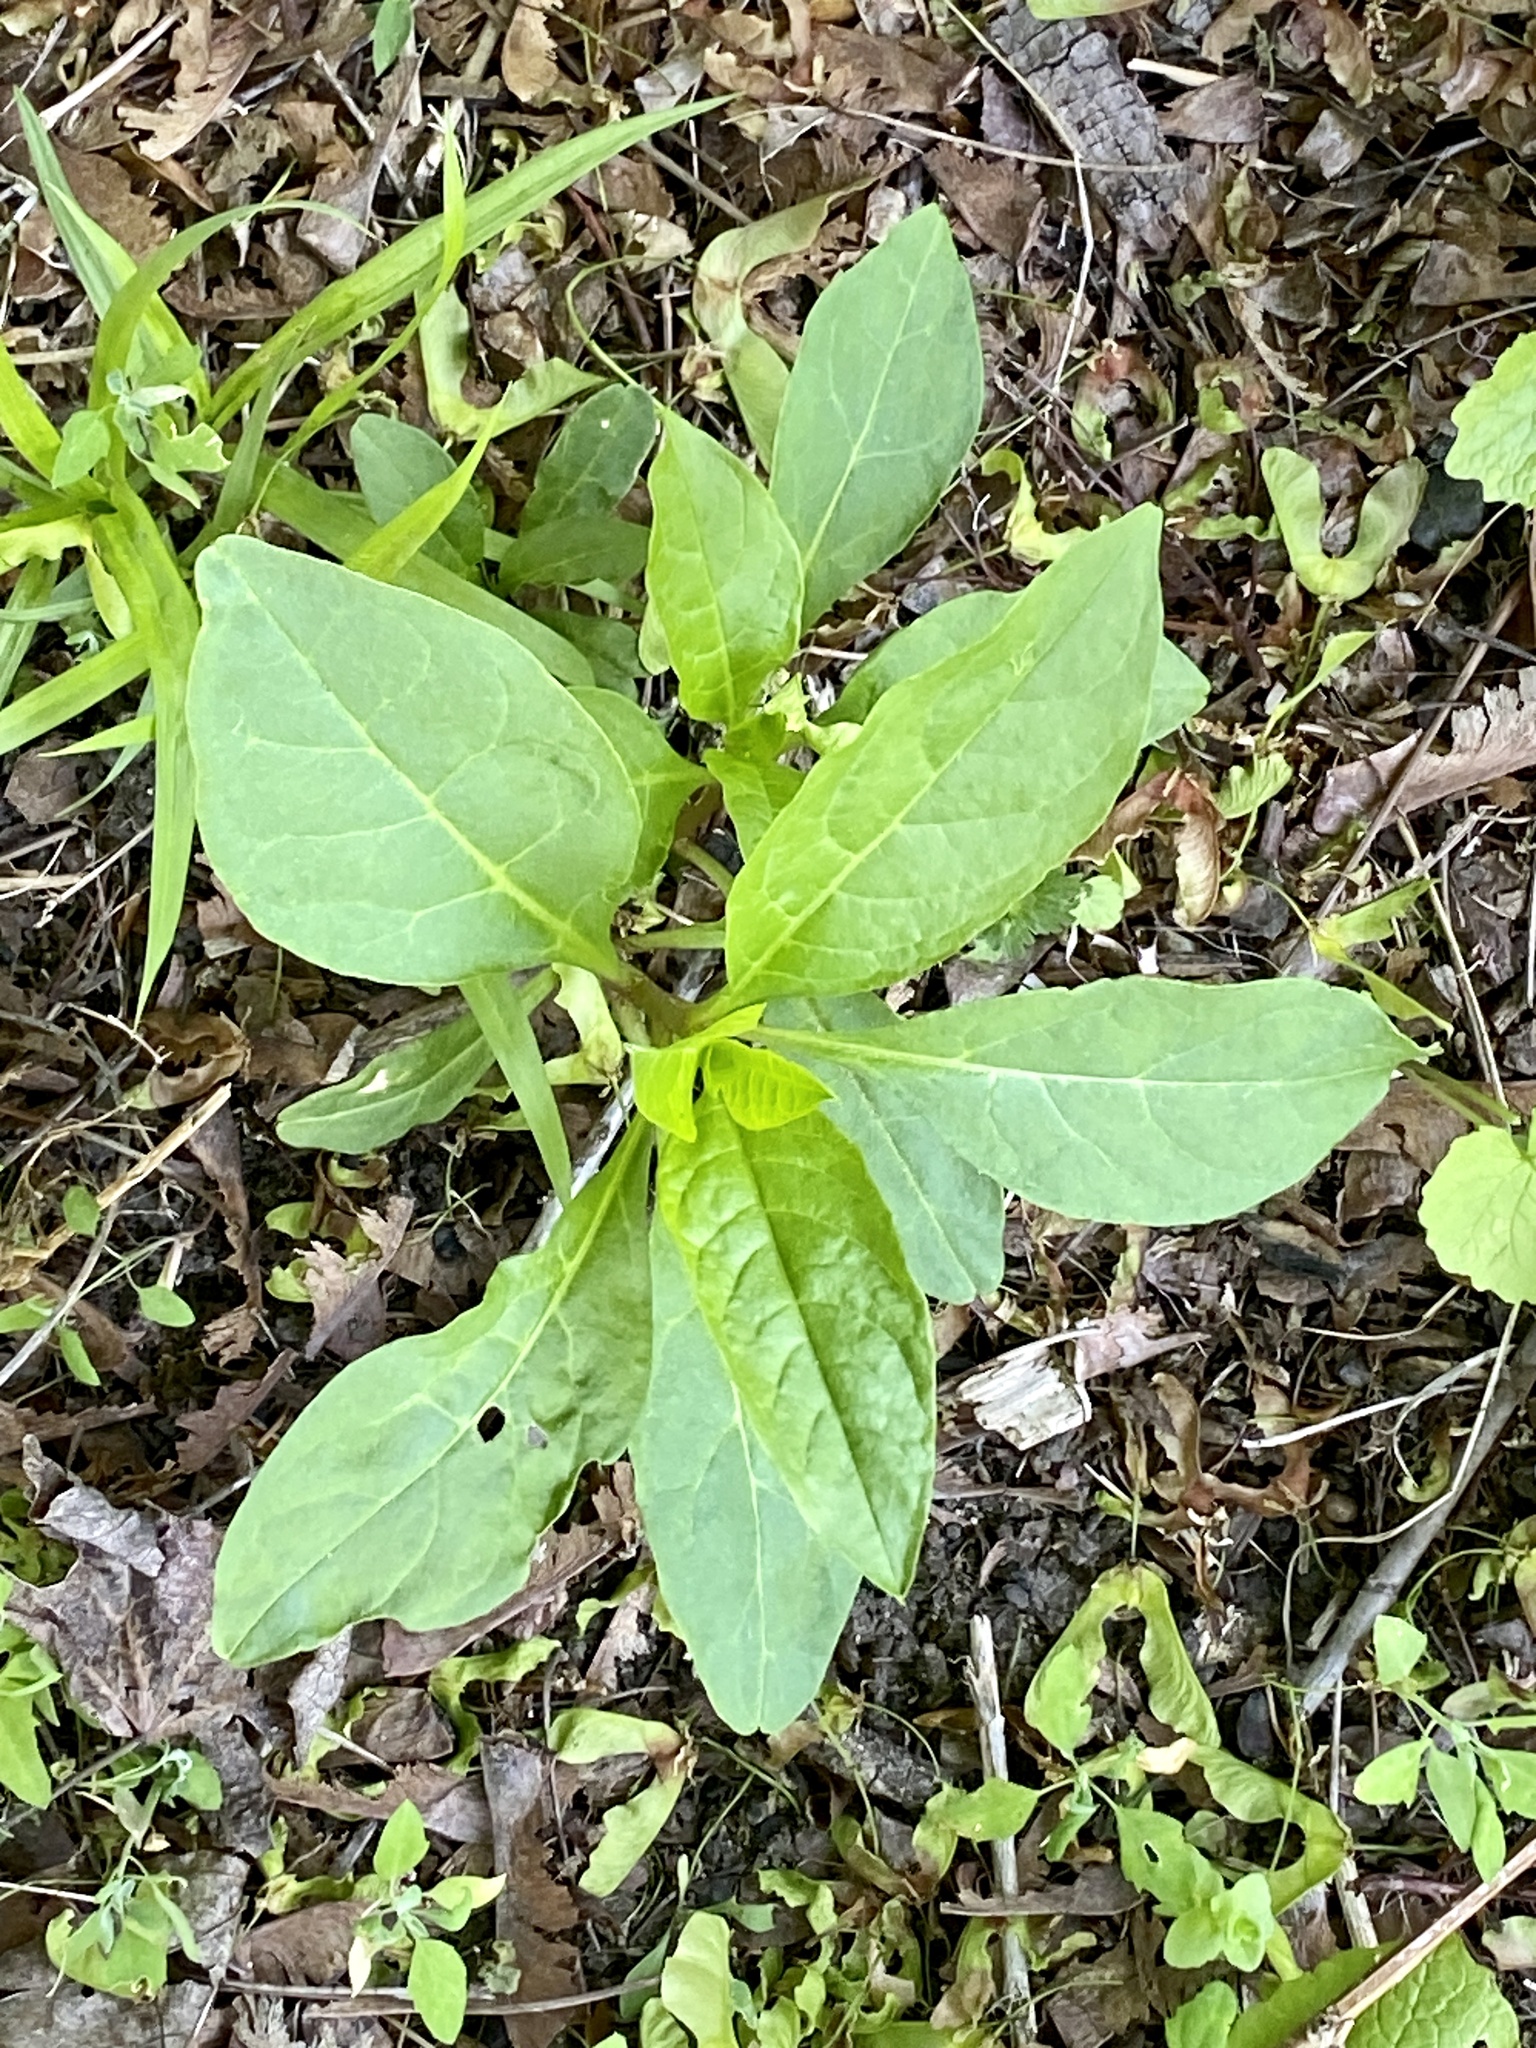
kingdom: Plantae
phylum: Tracheophyta
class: Magnoliopsida
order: Caryophyllales
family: Phytolaccaceae
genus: Phytolacca
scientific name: Phytolacca americana
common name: American pokeweed
